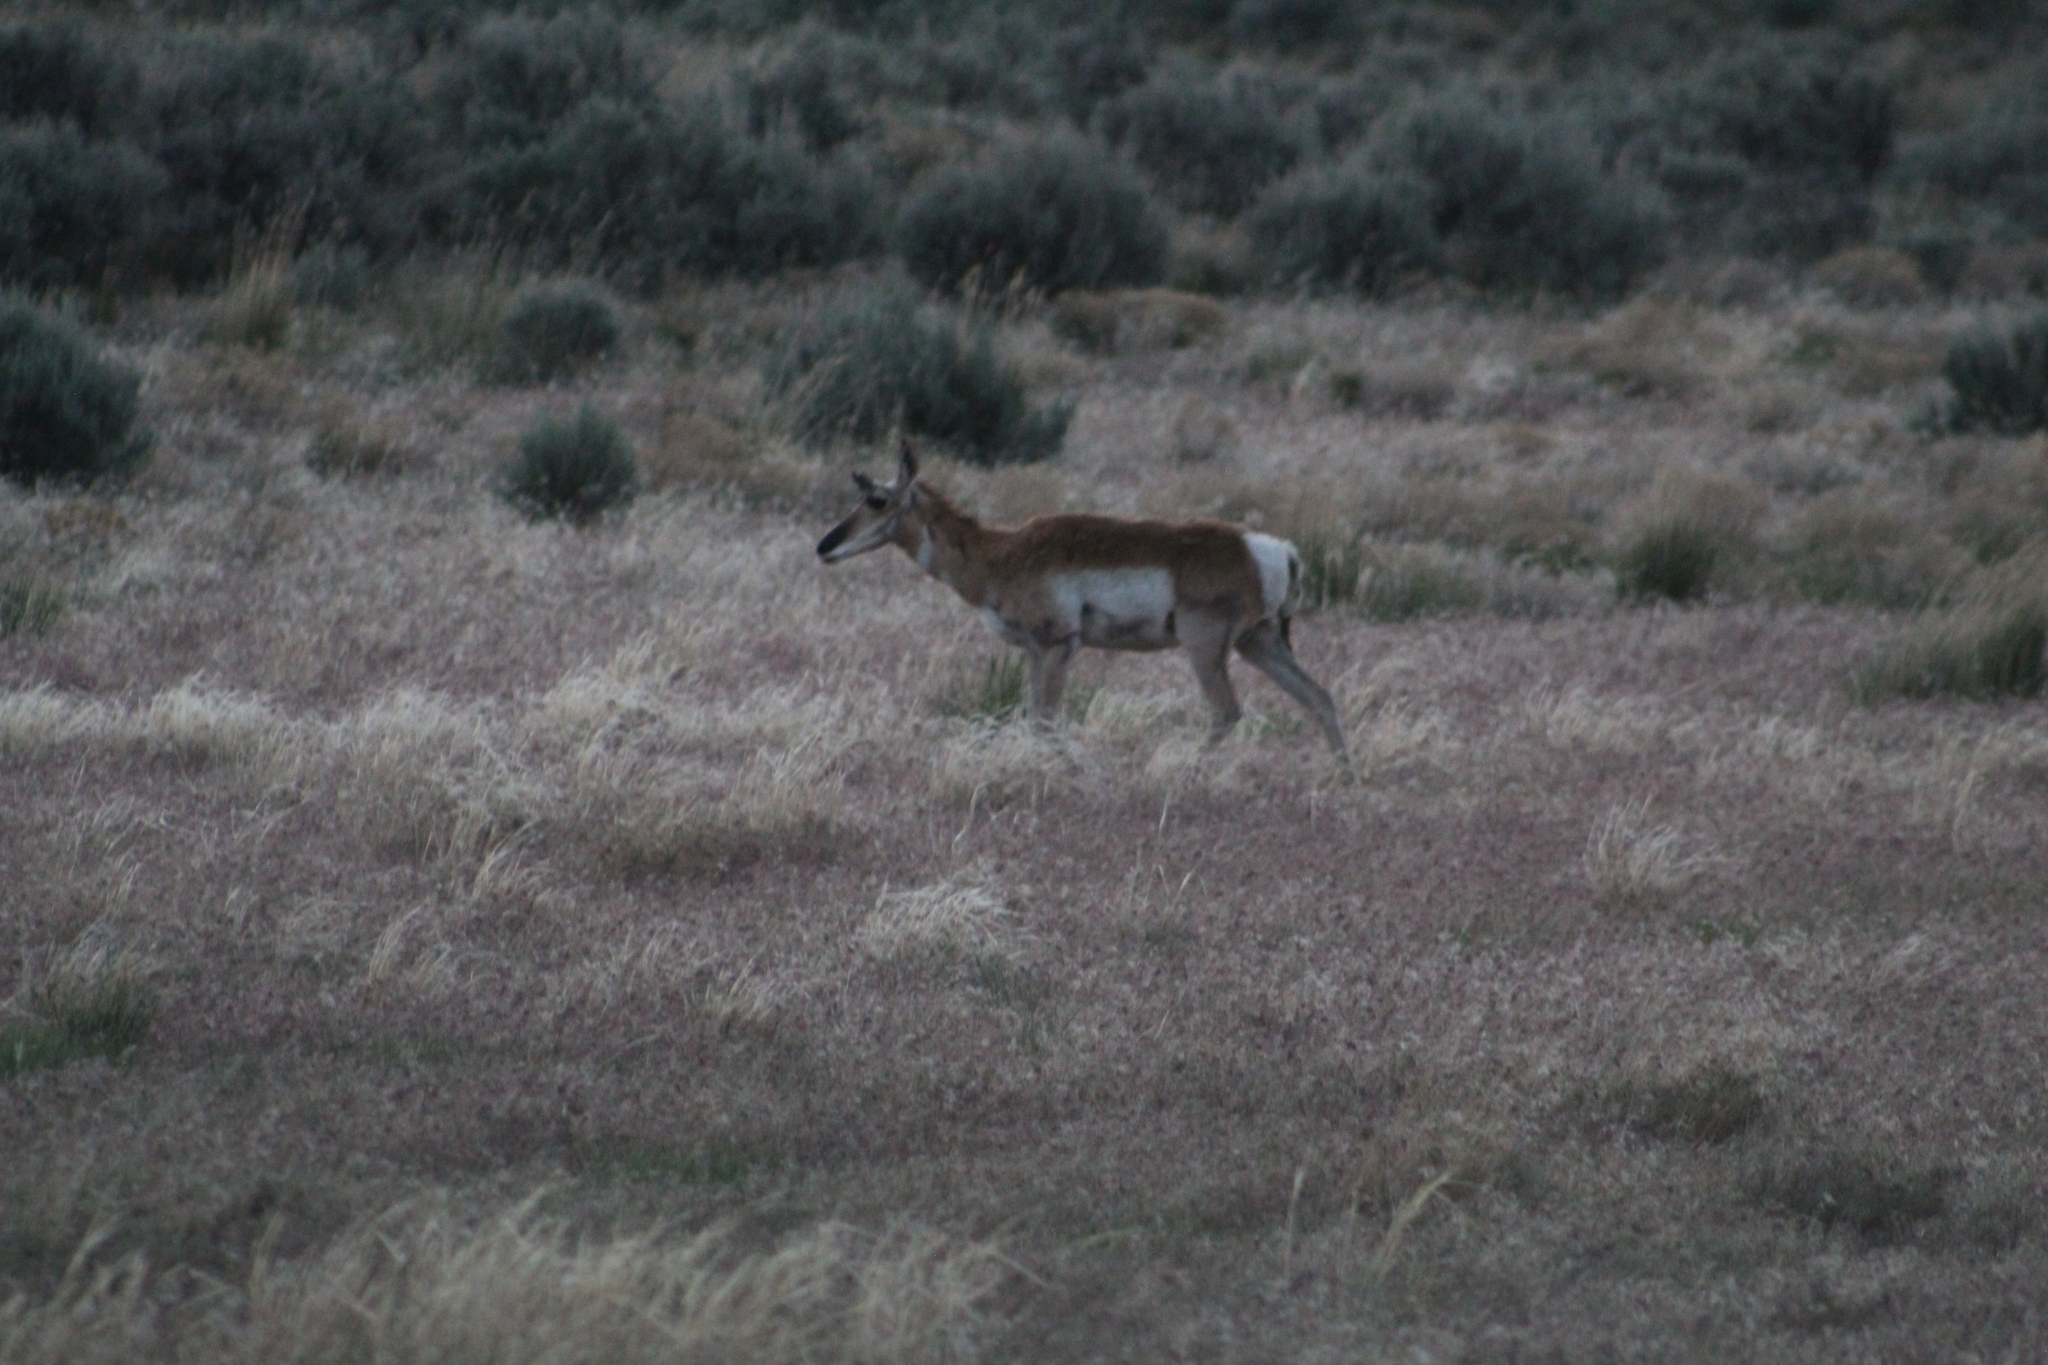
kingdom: Animalia
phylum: Chordata
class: Mammalia
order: Artiodactyla
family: Antilocapridae
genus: Antilocapra
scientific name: Antilocapra americana
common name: Pronghorn
